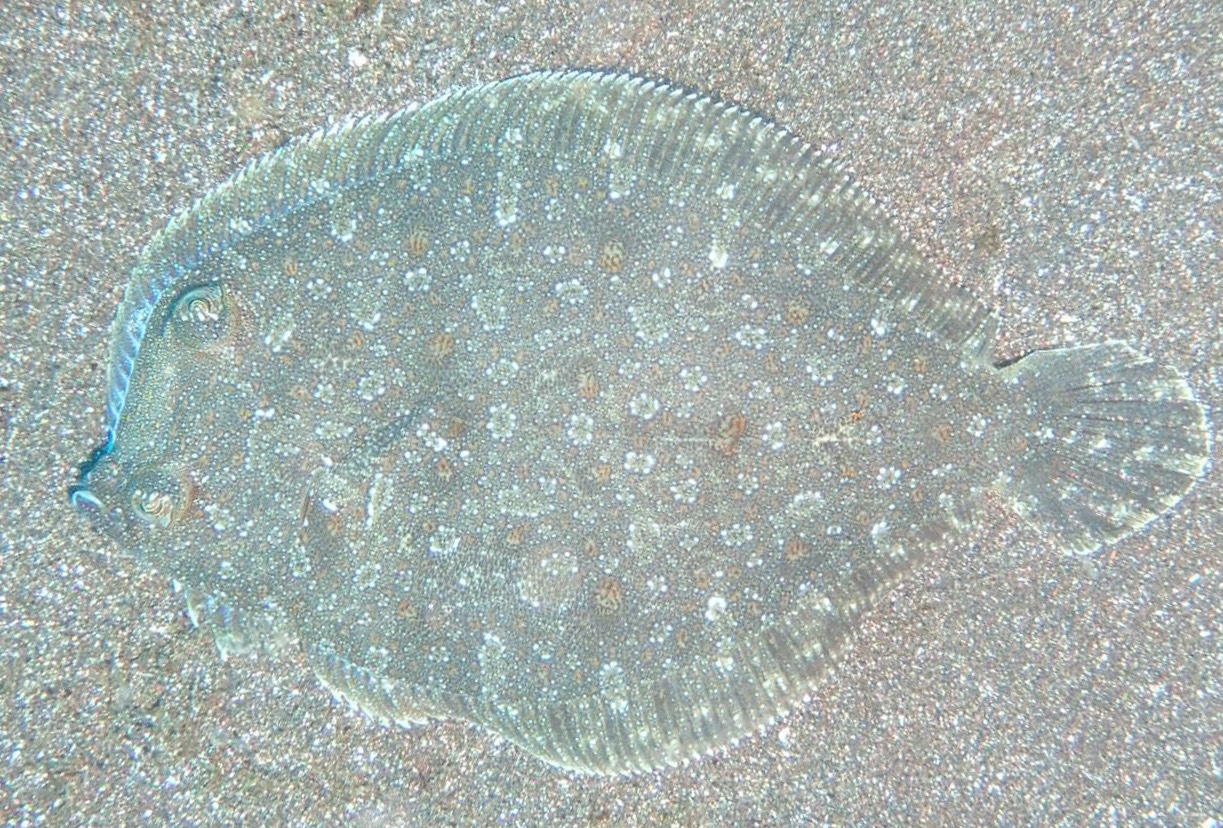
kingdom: Animalia
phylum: Chordata
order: Pleuronectiformes
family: Bothidae
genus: Bothus
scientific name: Bothus podas
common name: Wide-eyed flounder
